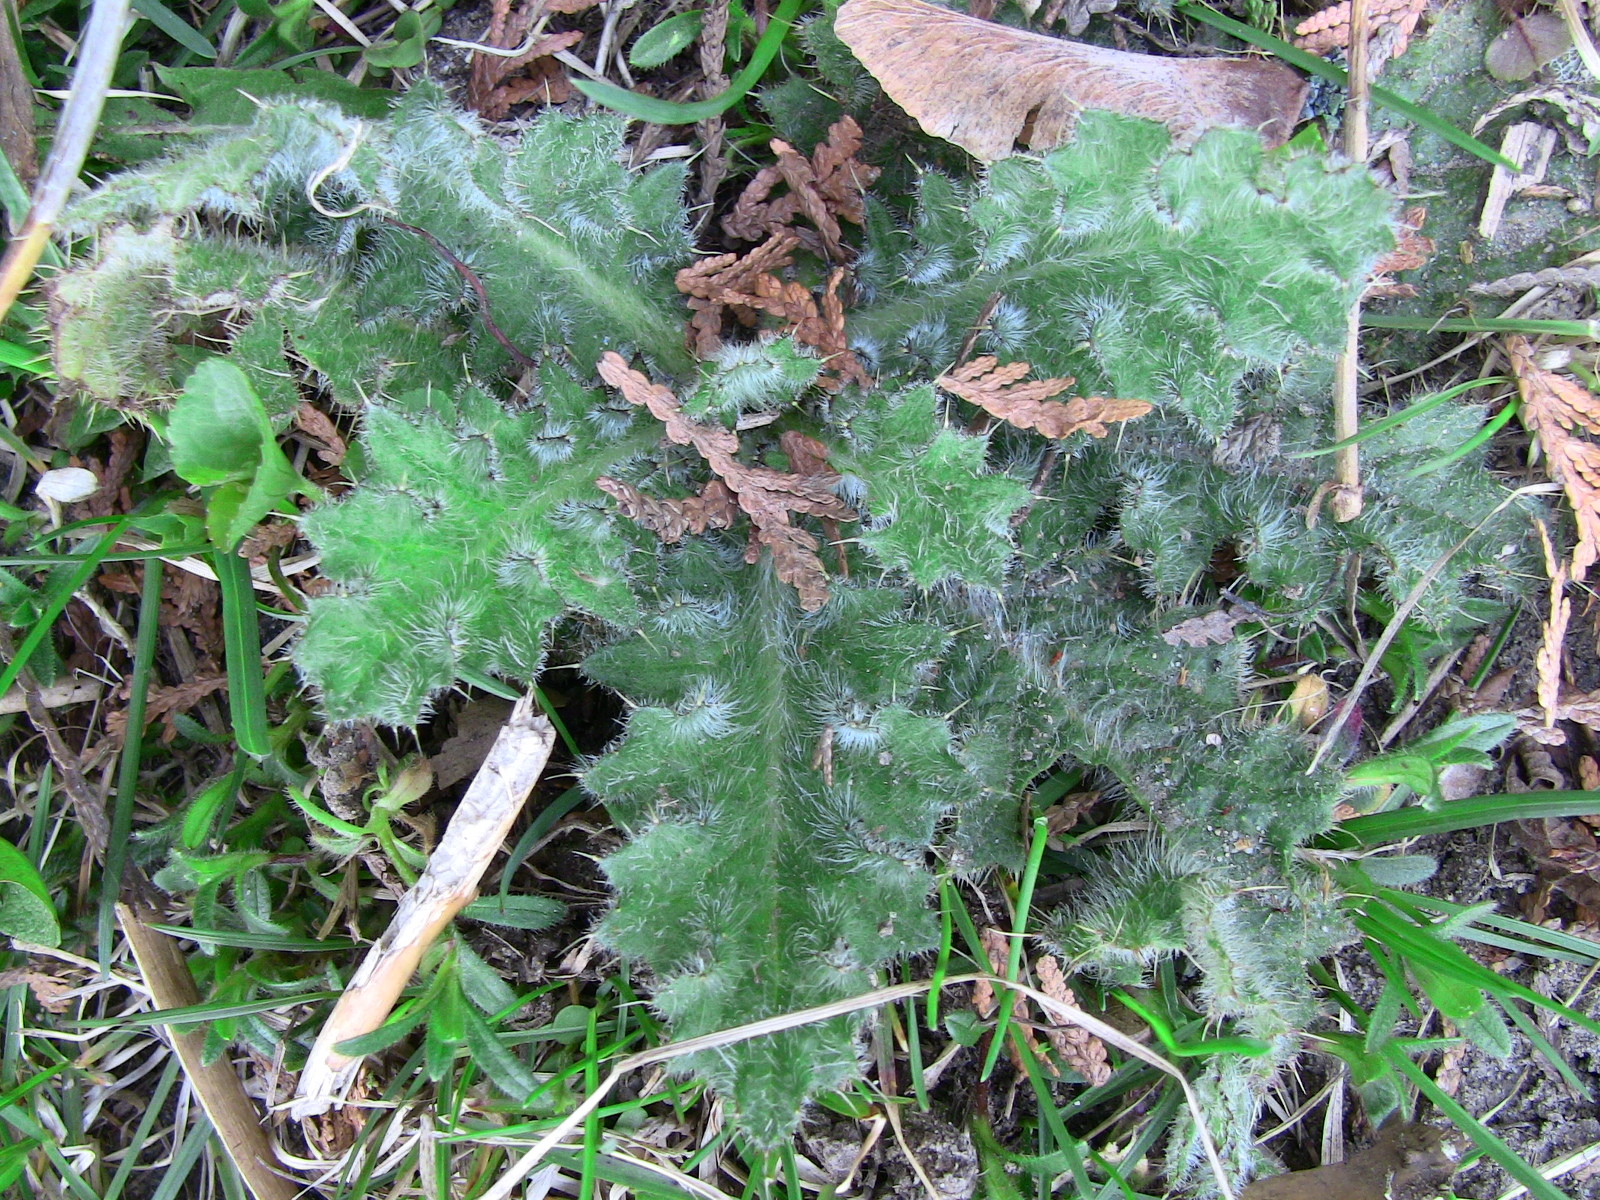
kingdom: Plantae
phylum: Tracheophyta
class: Magnoliopsida
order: Asterales
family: Asteraceae
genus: Cirsium
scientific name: Cirsium vulgare
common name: Bull thistle
